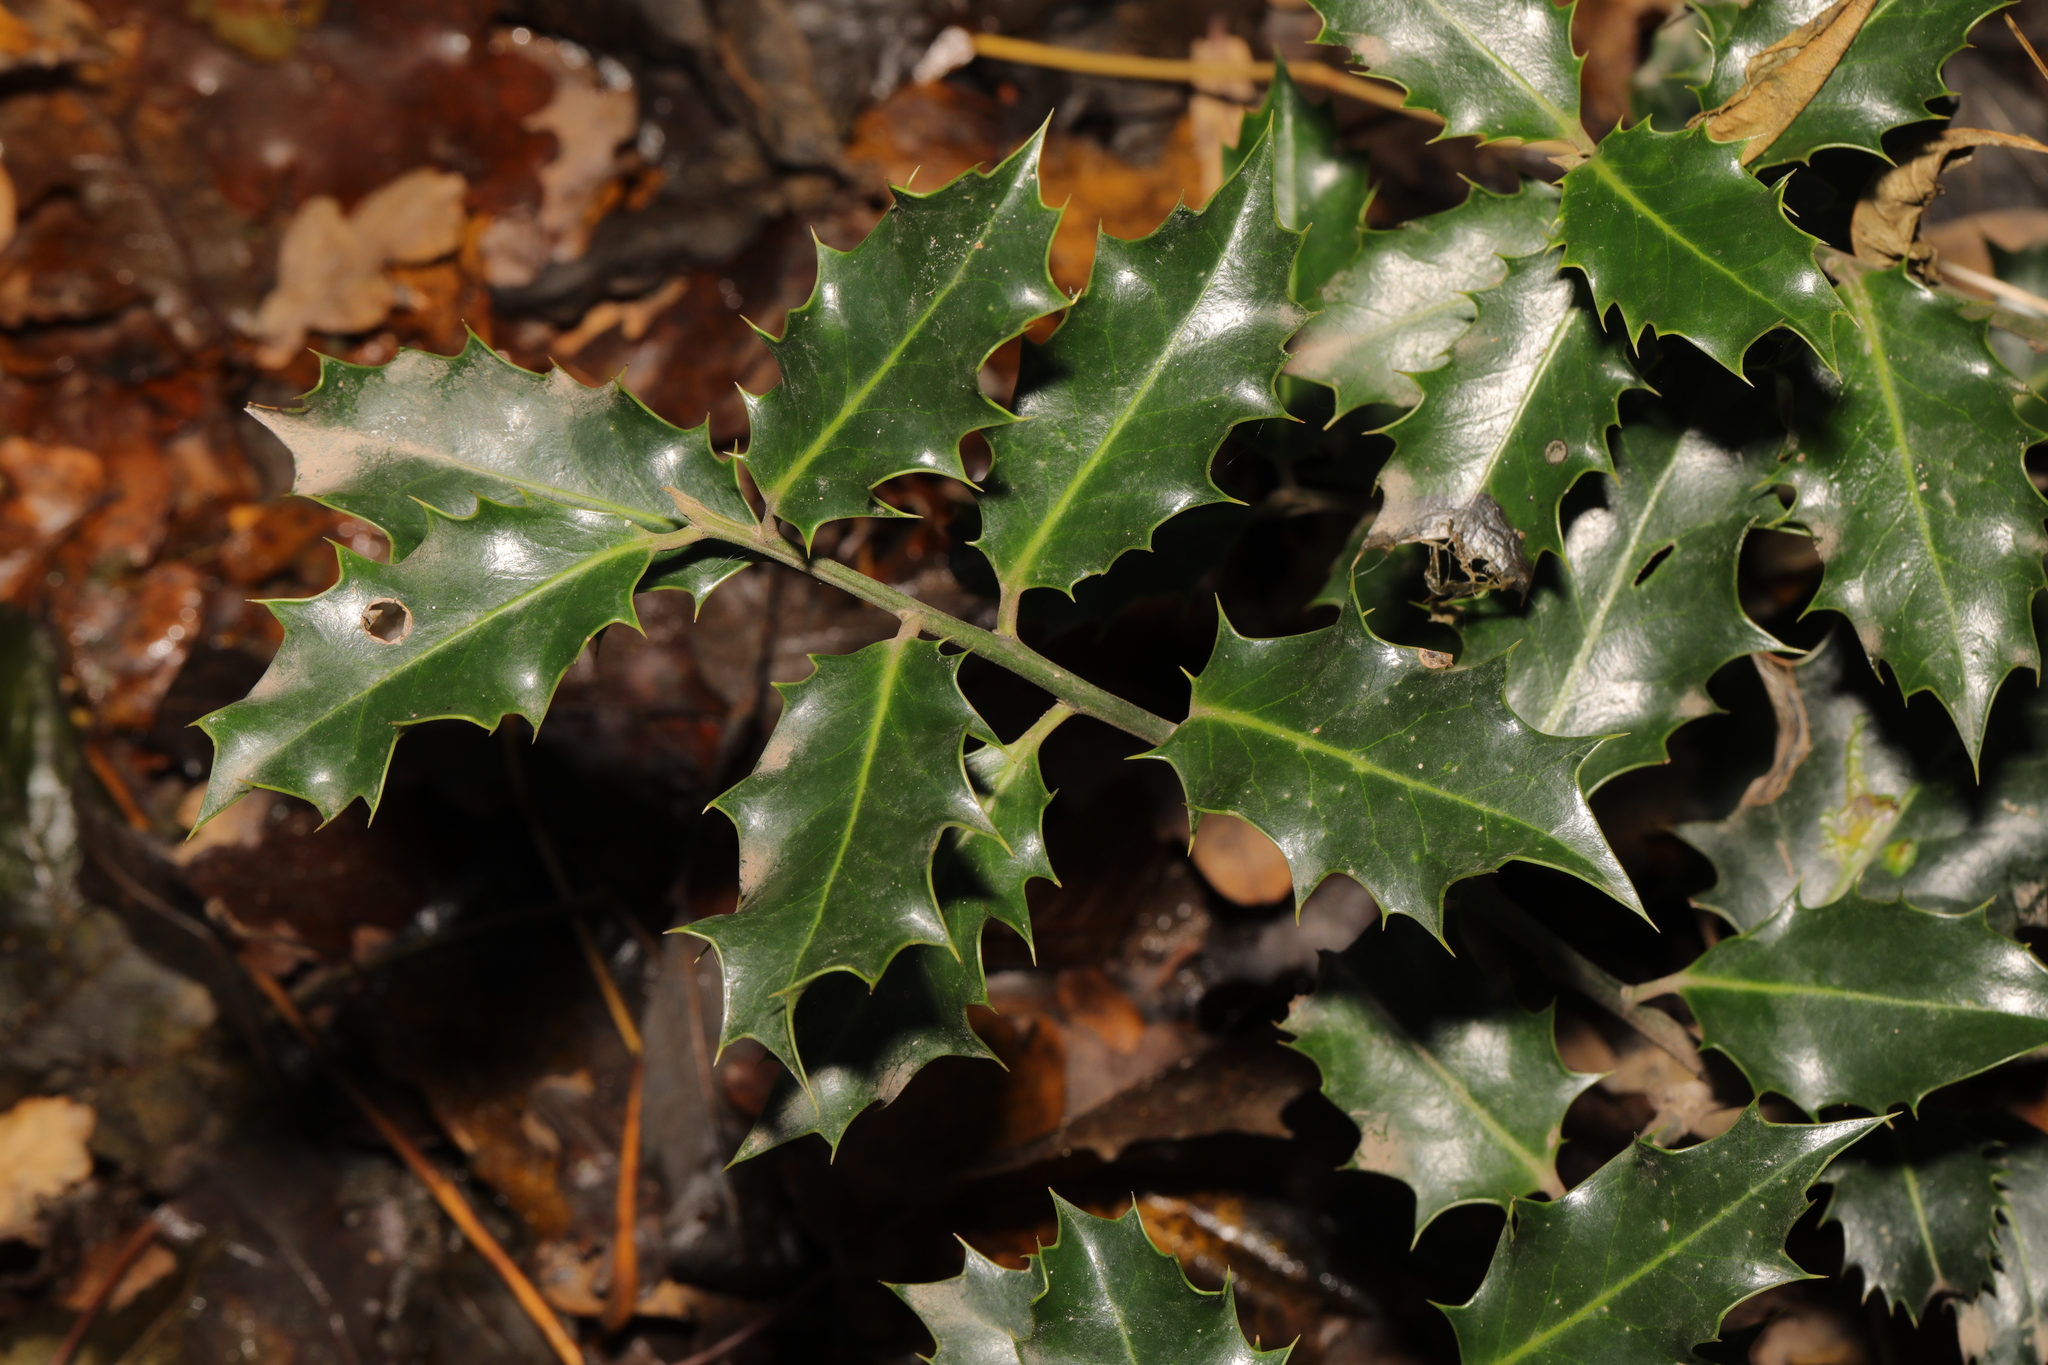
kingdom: Plantae
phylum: Tracheophyta
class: Magnoliopsida
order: Aquifoliales
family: Aquifoliaceae
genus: Ilex
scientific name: Ilex aquifolium
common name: English holly
